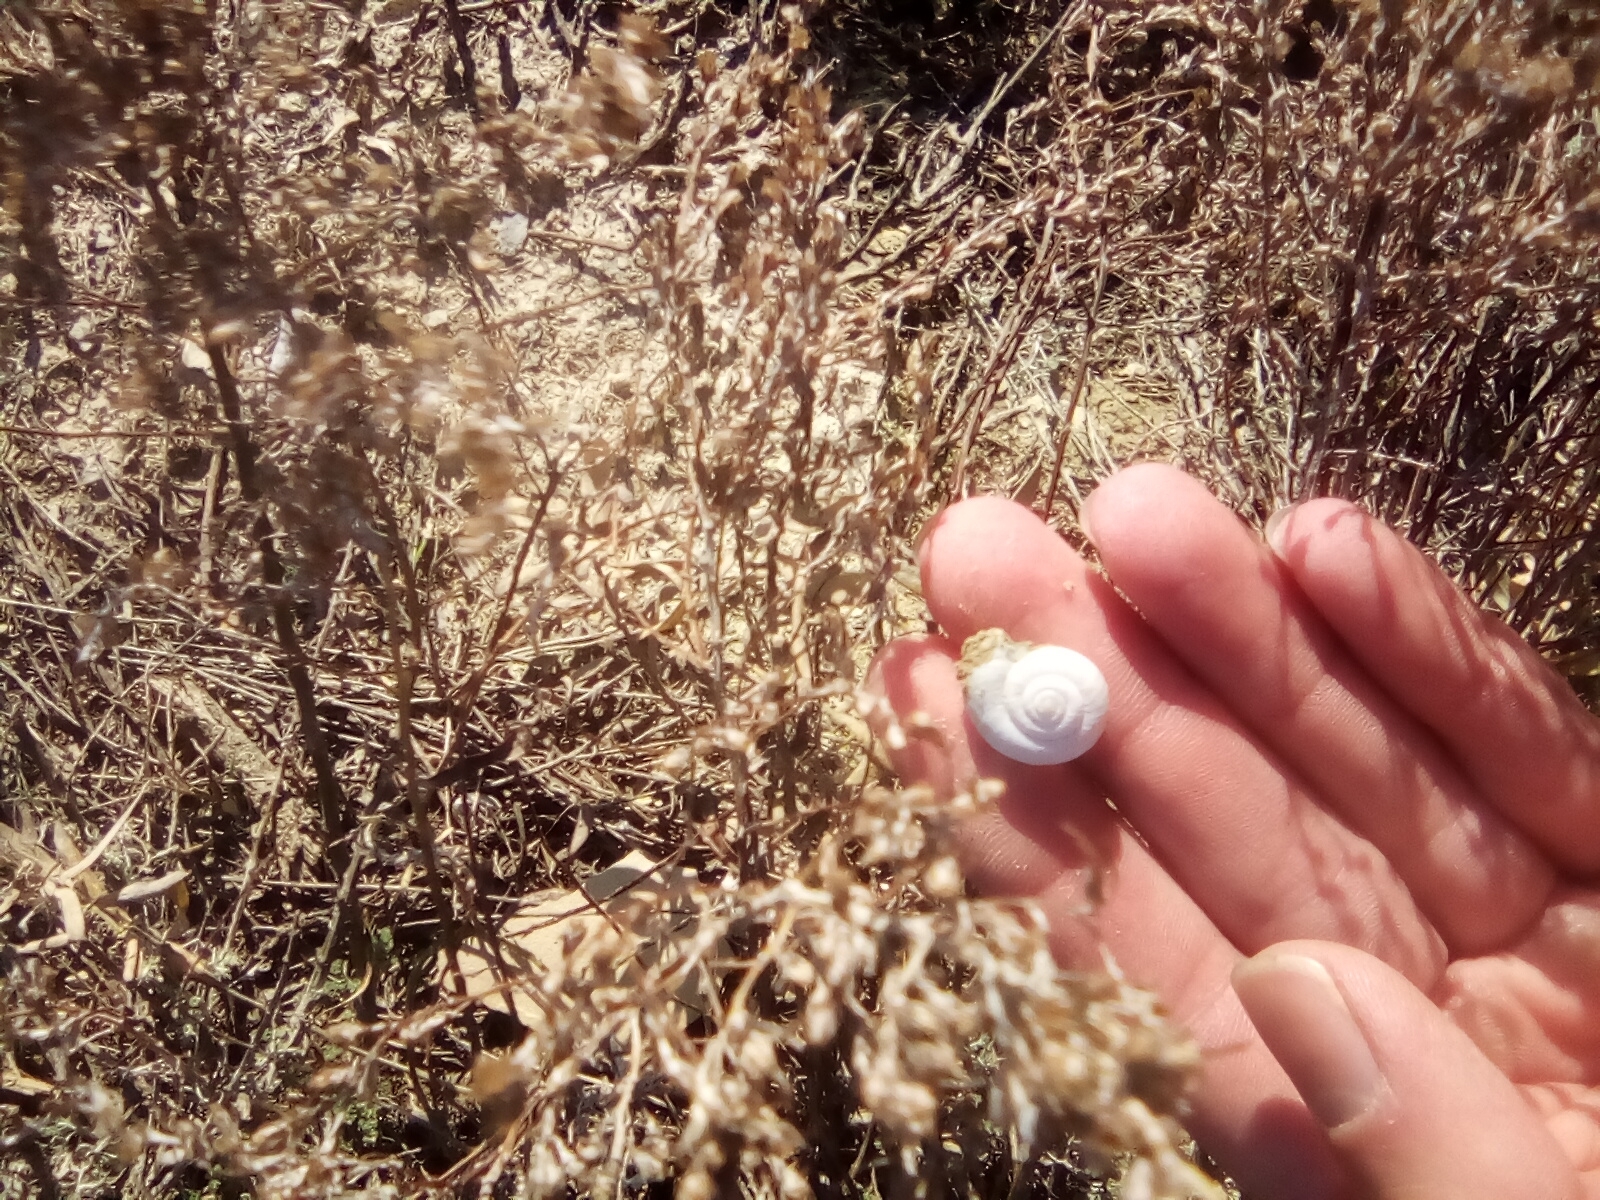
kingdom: Animalia
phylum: Mollusca
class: Gastropoda
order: Stylommatophora
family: Geomitridae
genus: Xeropicta
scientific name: Xeropicta derbentina
